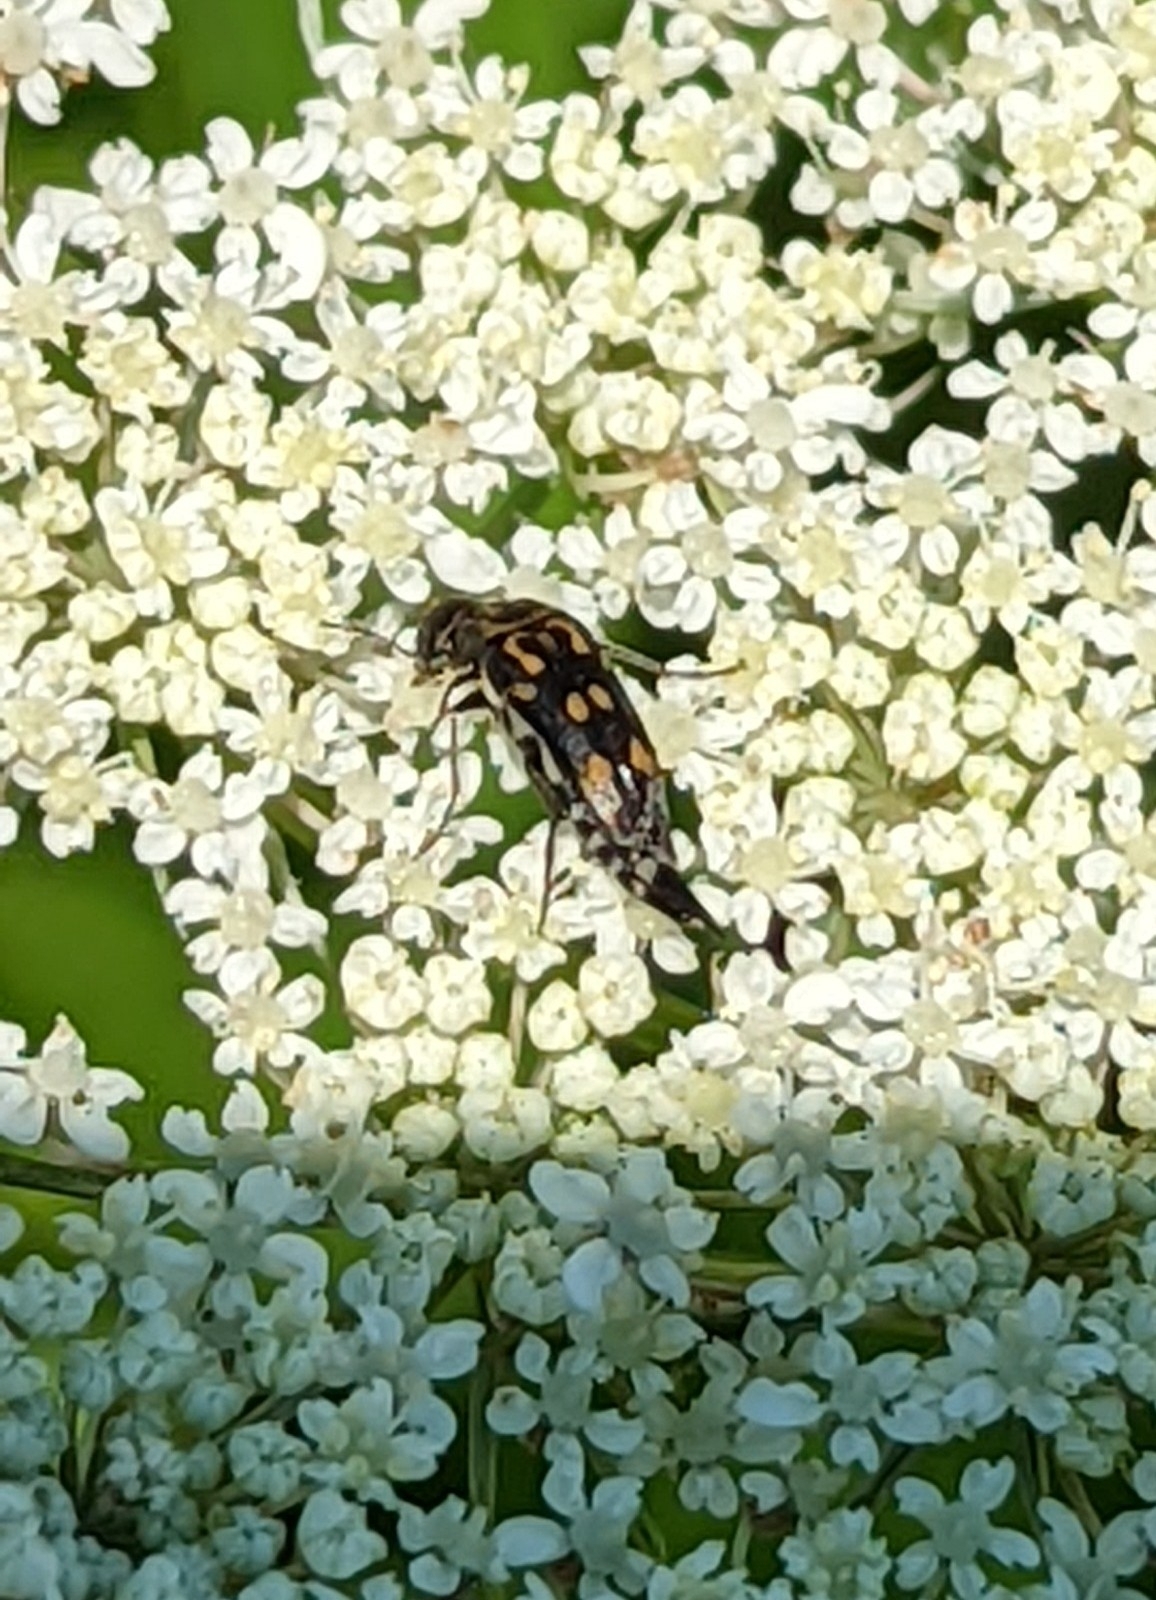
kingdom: Animalia
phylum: Arthropoda
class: Insecta
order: Coleoptera
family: Mordellidae
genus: Hoshihananomia
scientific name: Hoshihananomia octopunctata
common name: Eight-spotted tumbling flower beetle
